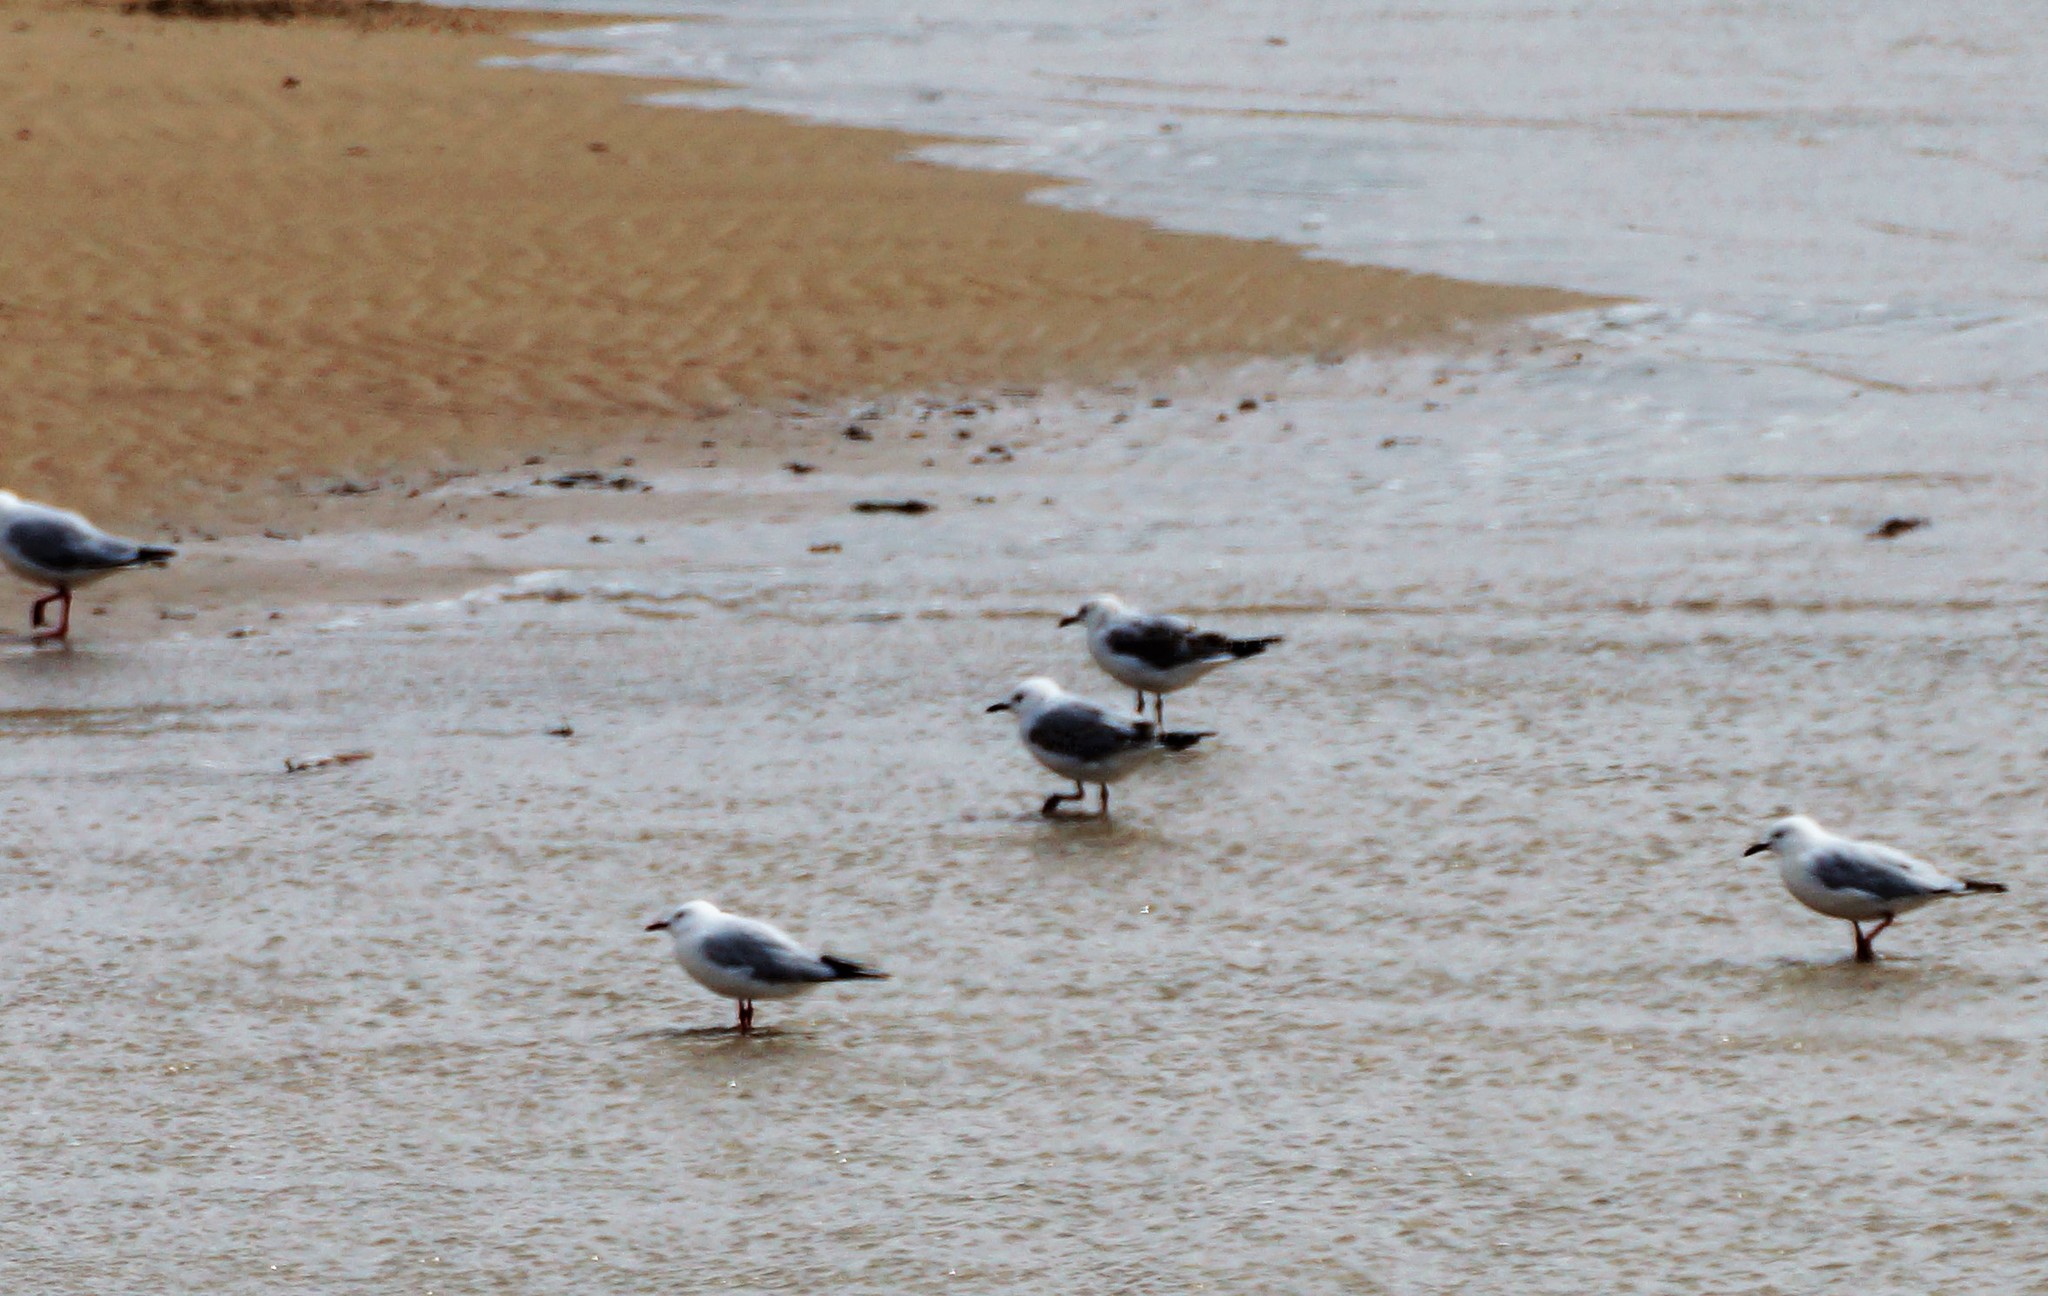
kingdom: Animalia
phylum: Chordata
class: Aves
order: Charadriiformes
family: Laridae
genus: Chroicocephalus
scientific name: Chroicocephalus novaehollandiae
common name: Silver gull
